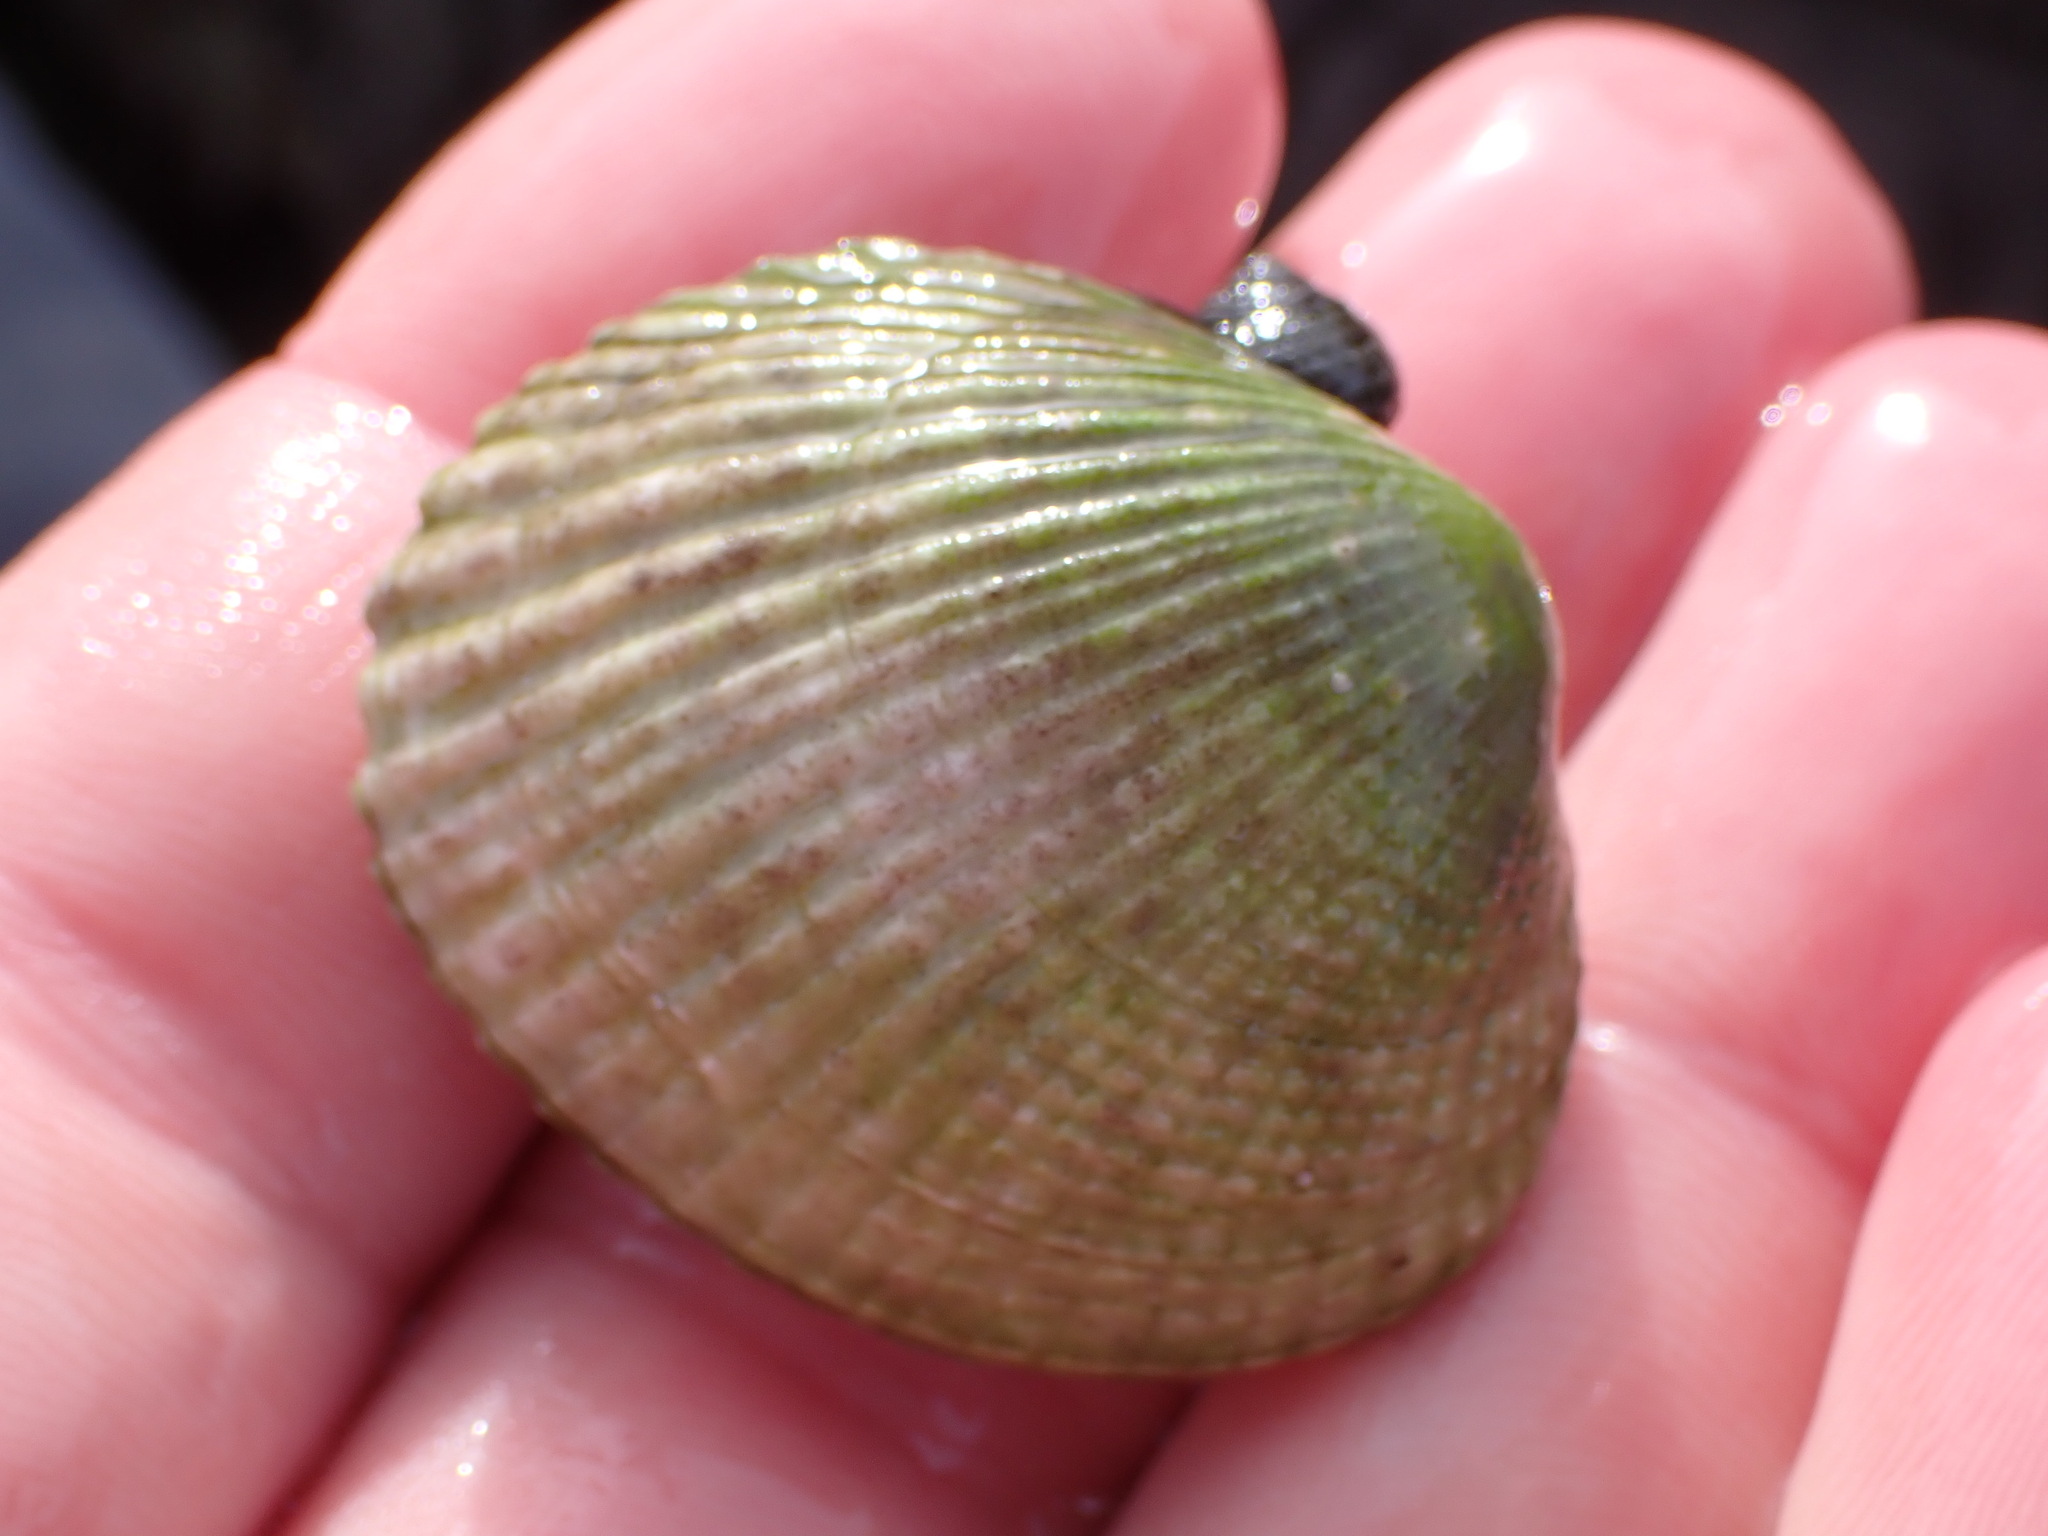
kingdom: Animalia
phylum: Mollusca
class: Bivalvia
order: Venerida
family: Veneridae
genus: Leukoma
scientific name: Leukoma crassicosta
